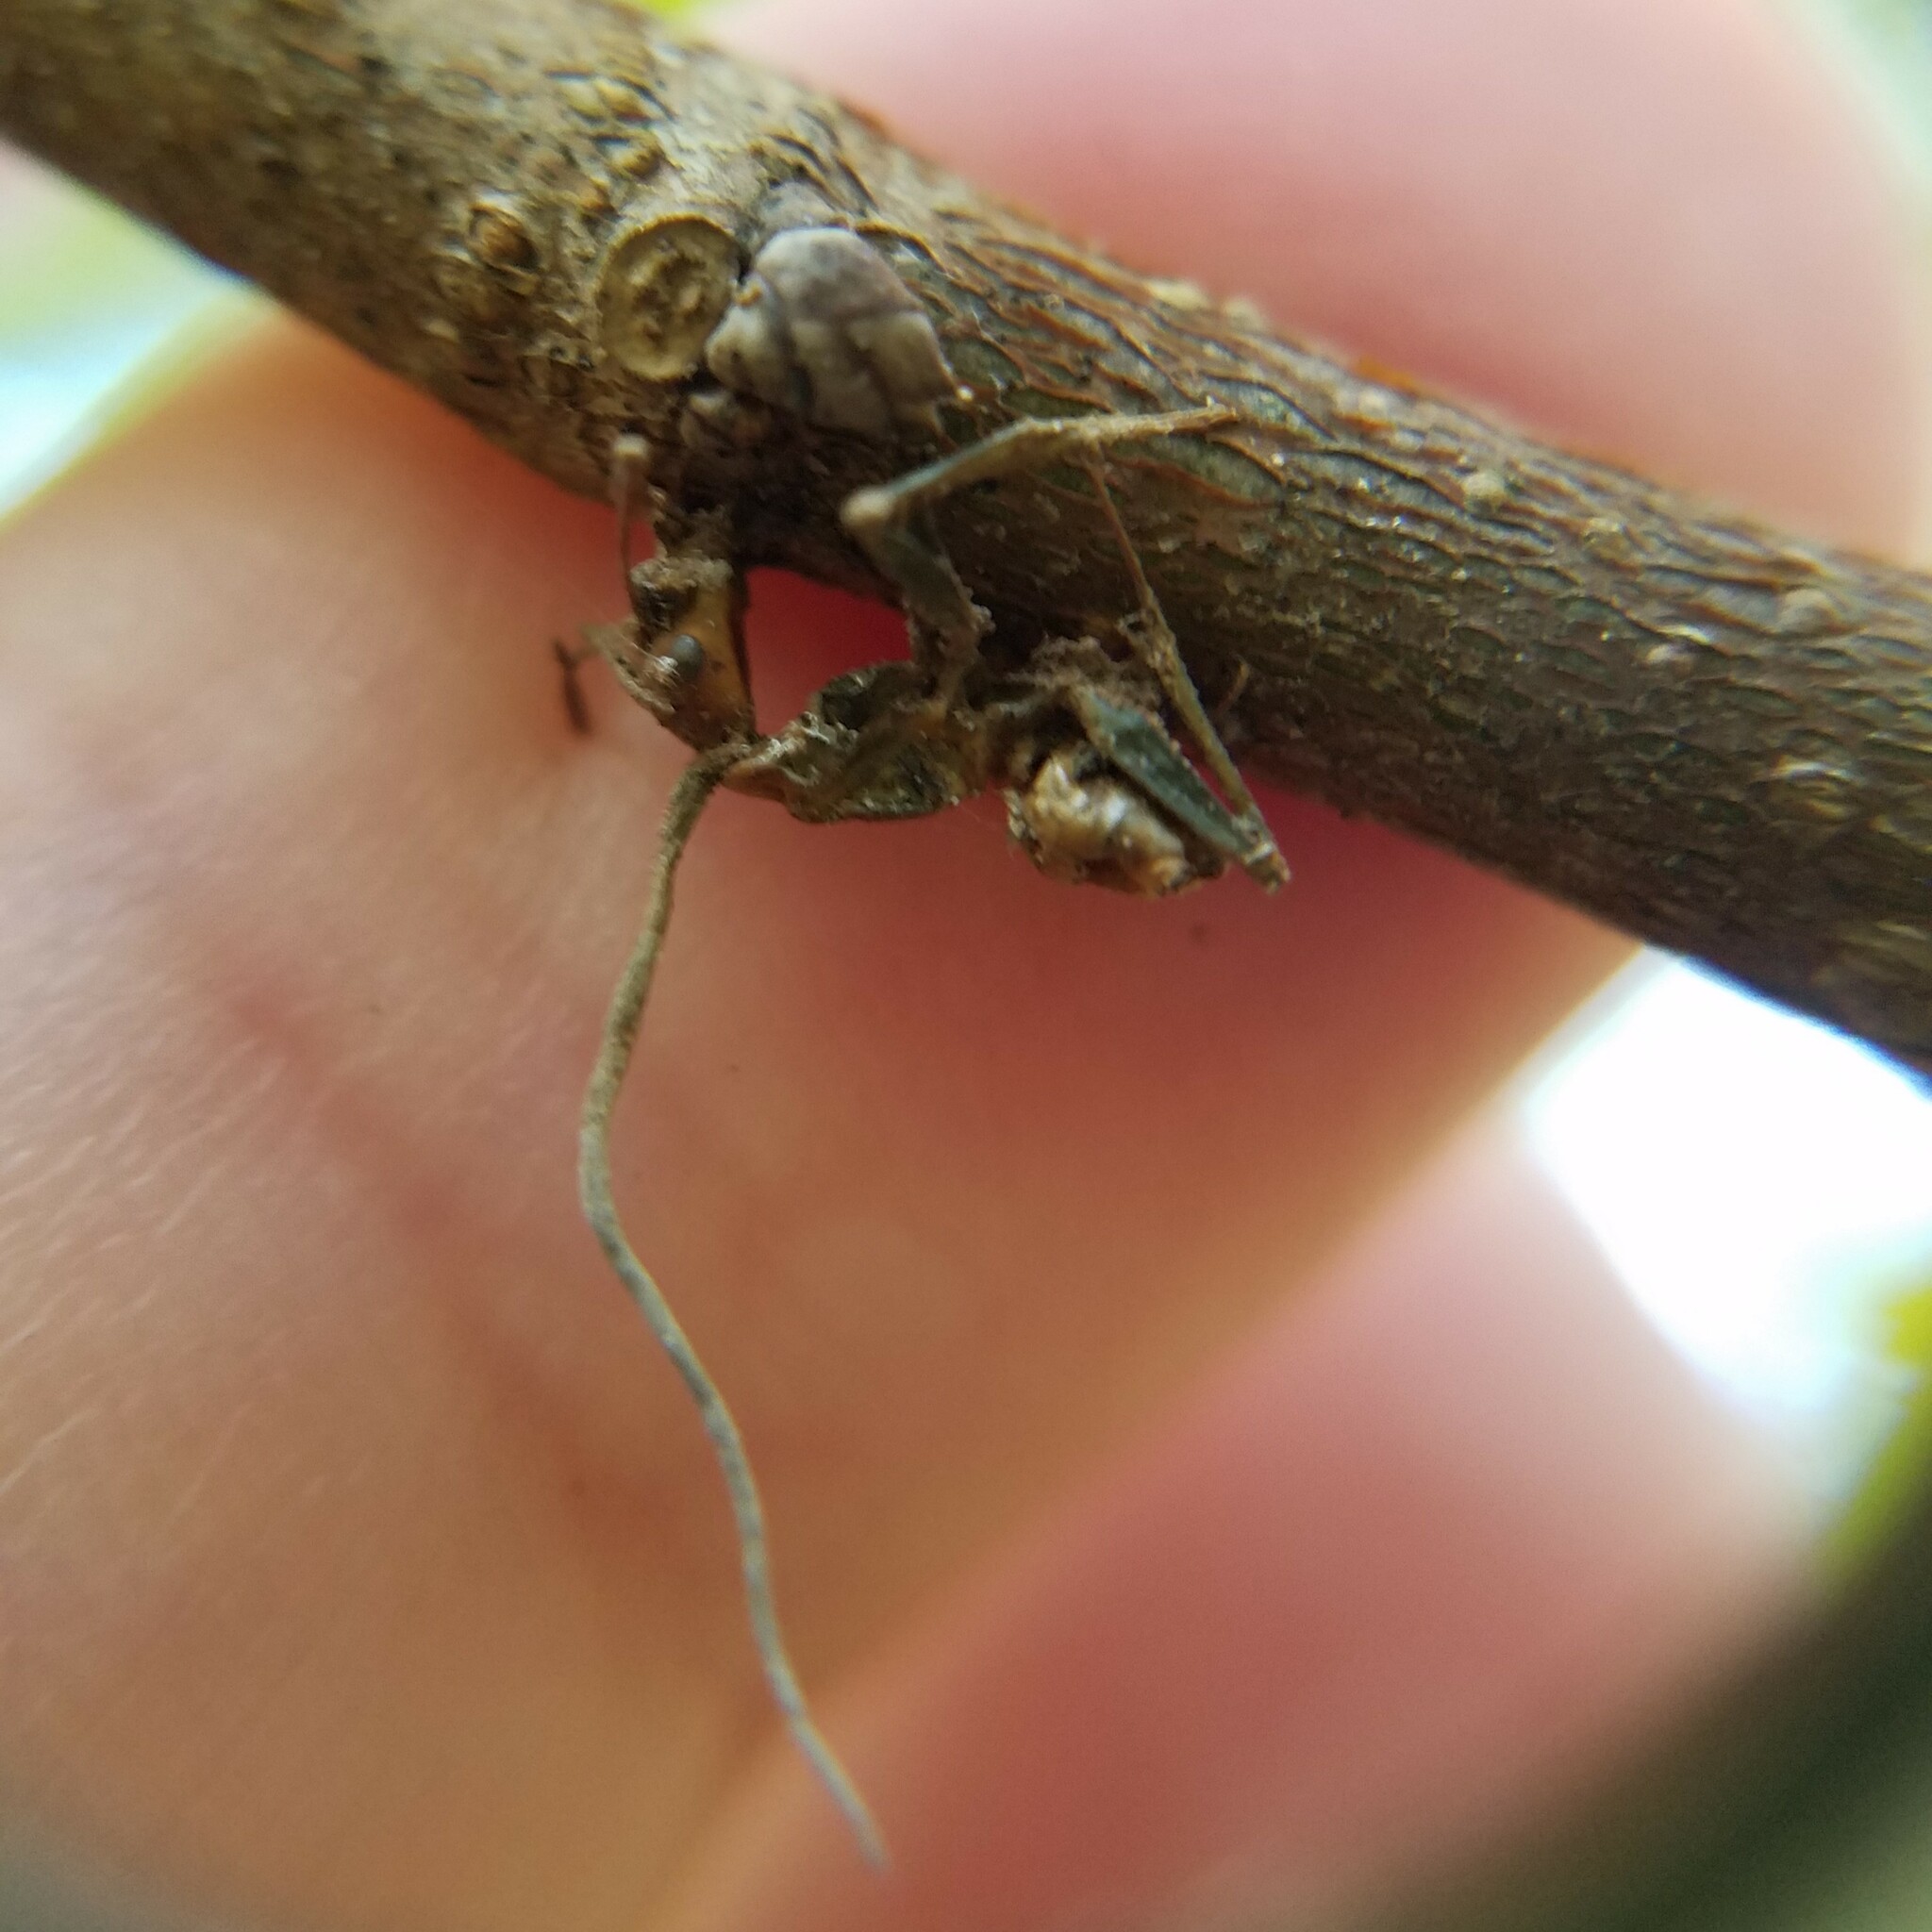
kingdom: Fungi
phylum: Ascomycota
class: Sordariomycetes
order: Hypocreales
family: Ophiocordycipitaceae
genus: Ophiocordyceps
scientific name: Ophiocordyceps kimflemingiae
